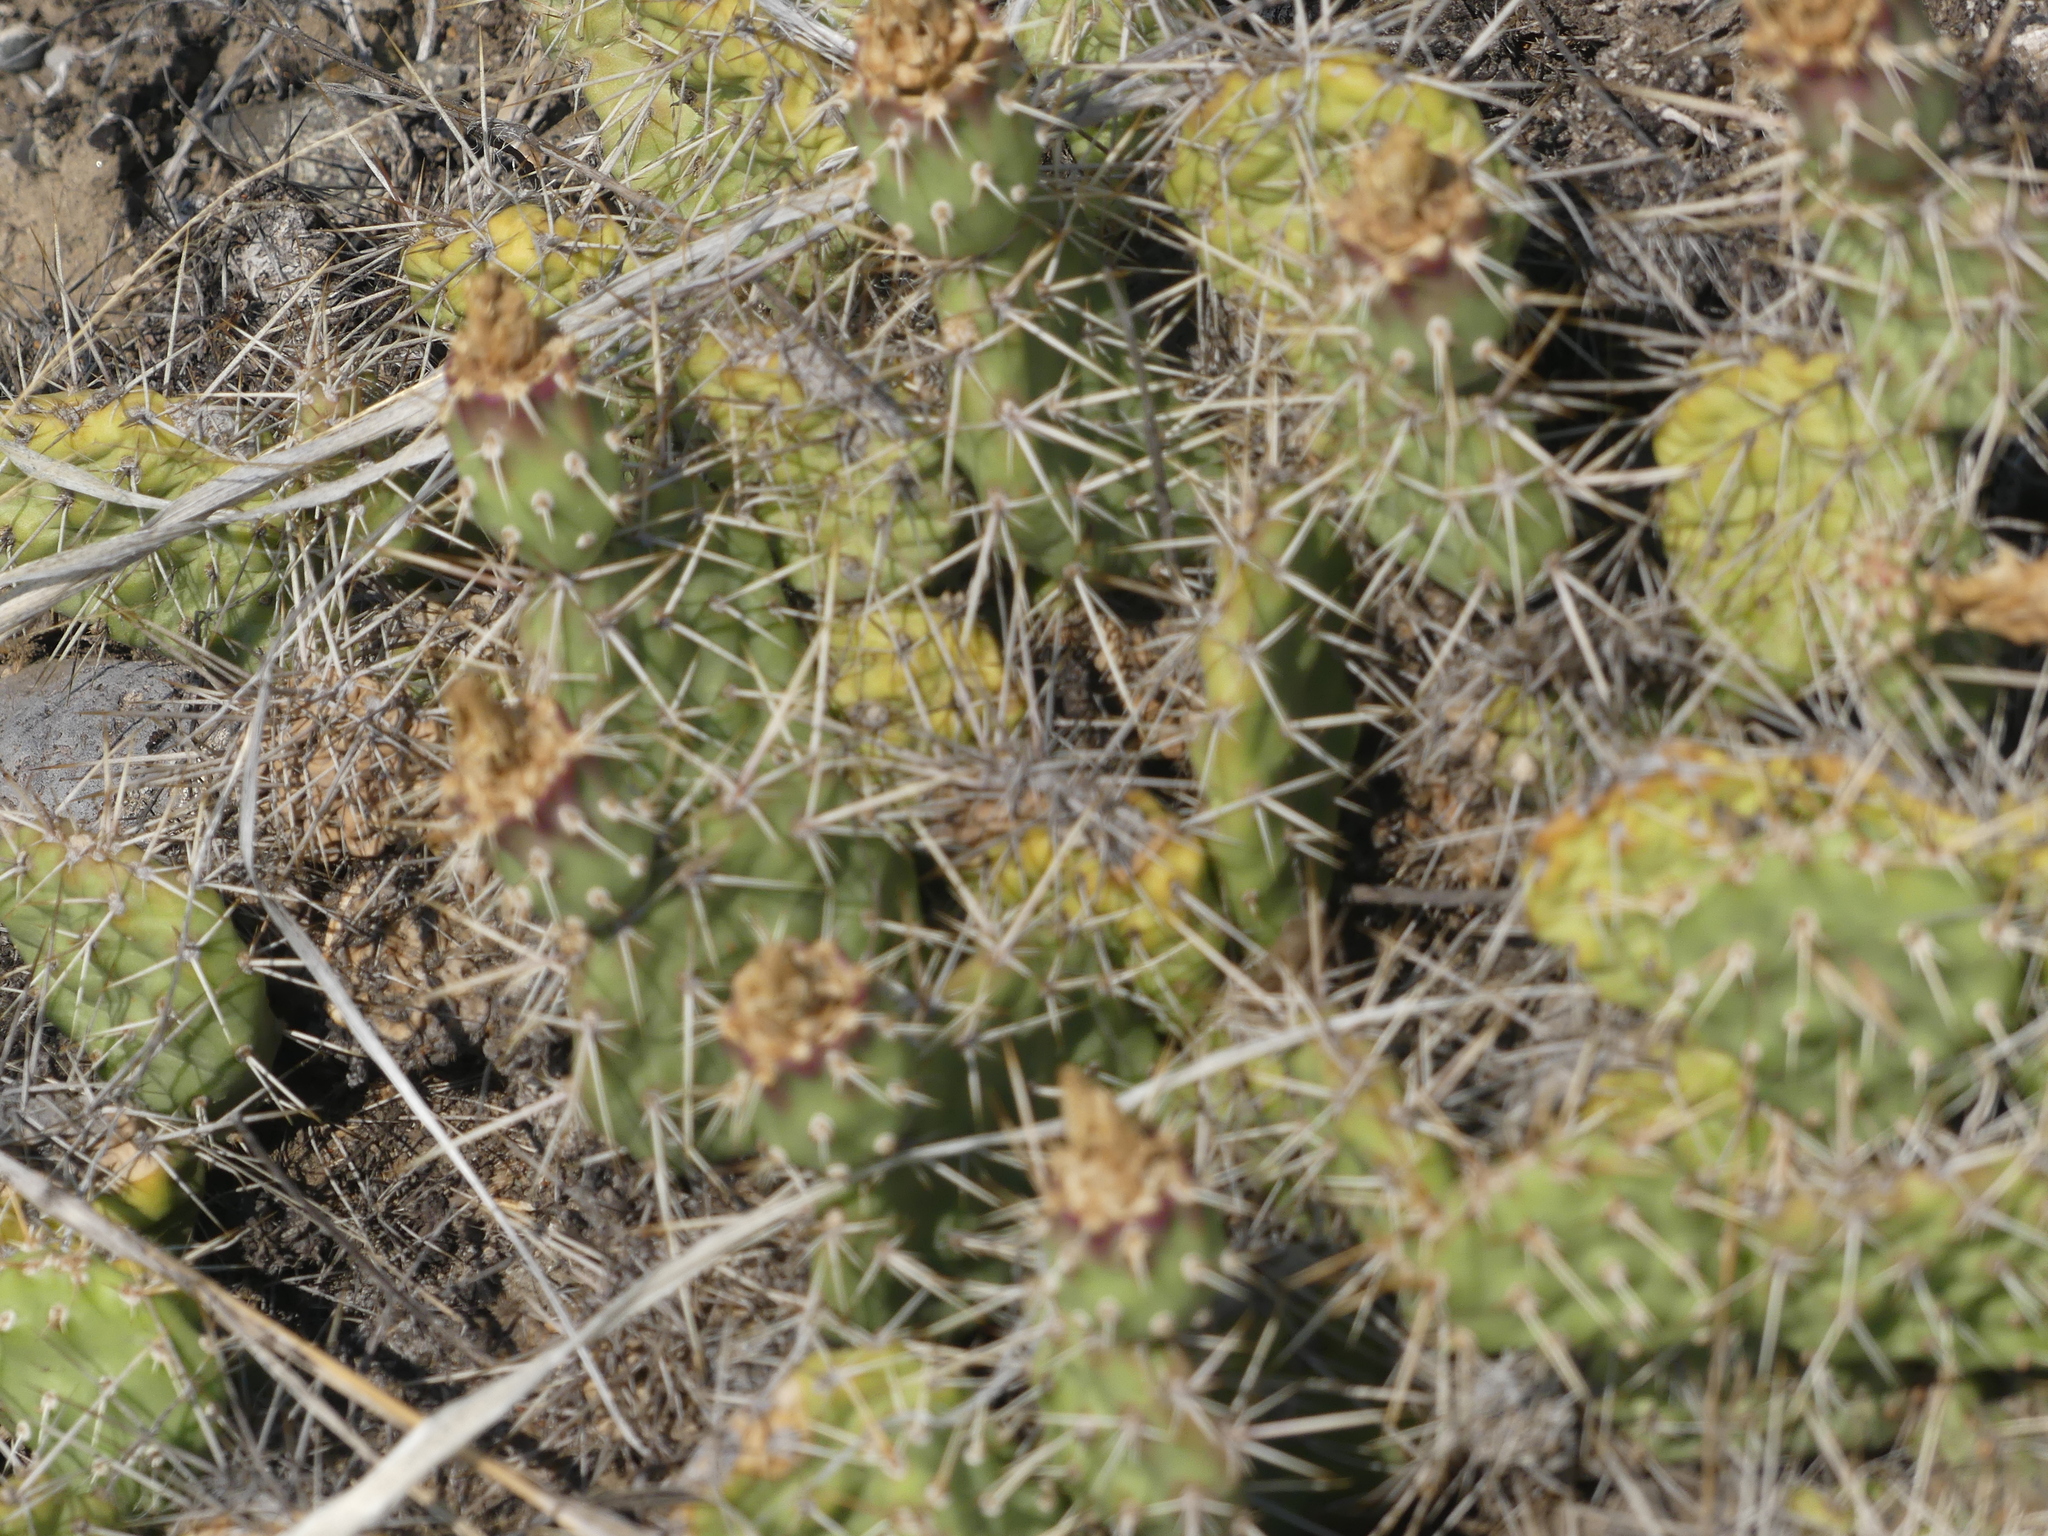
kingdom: Plantae
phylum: Tracheophyta
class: Magnoliopsida
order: Caryophyllales
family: Cactaceae
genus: Opuntia
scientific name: Opuntia columbiana
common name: Columbia prickly-pear
